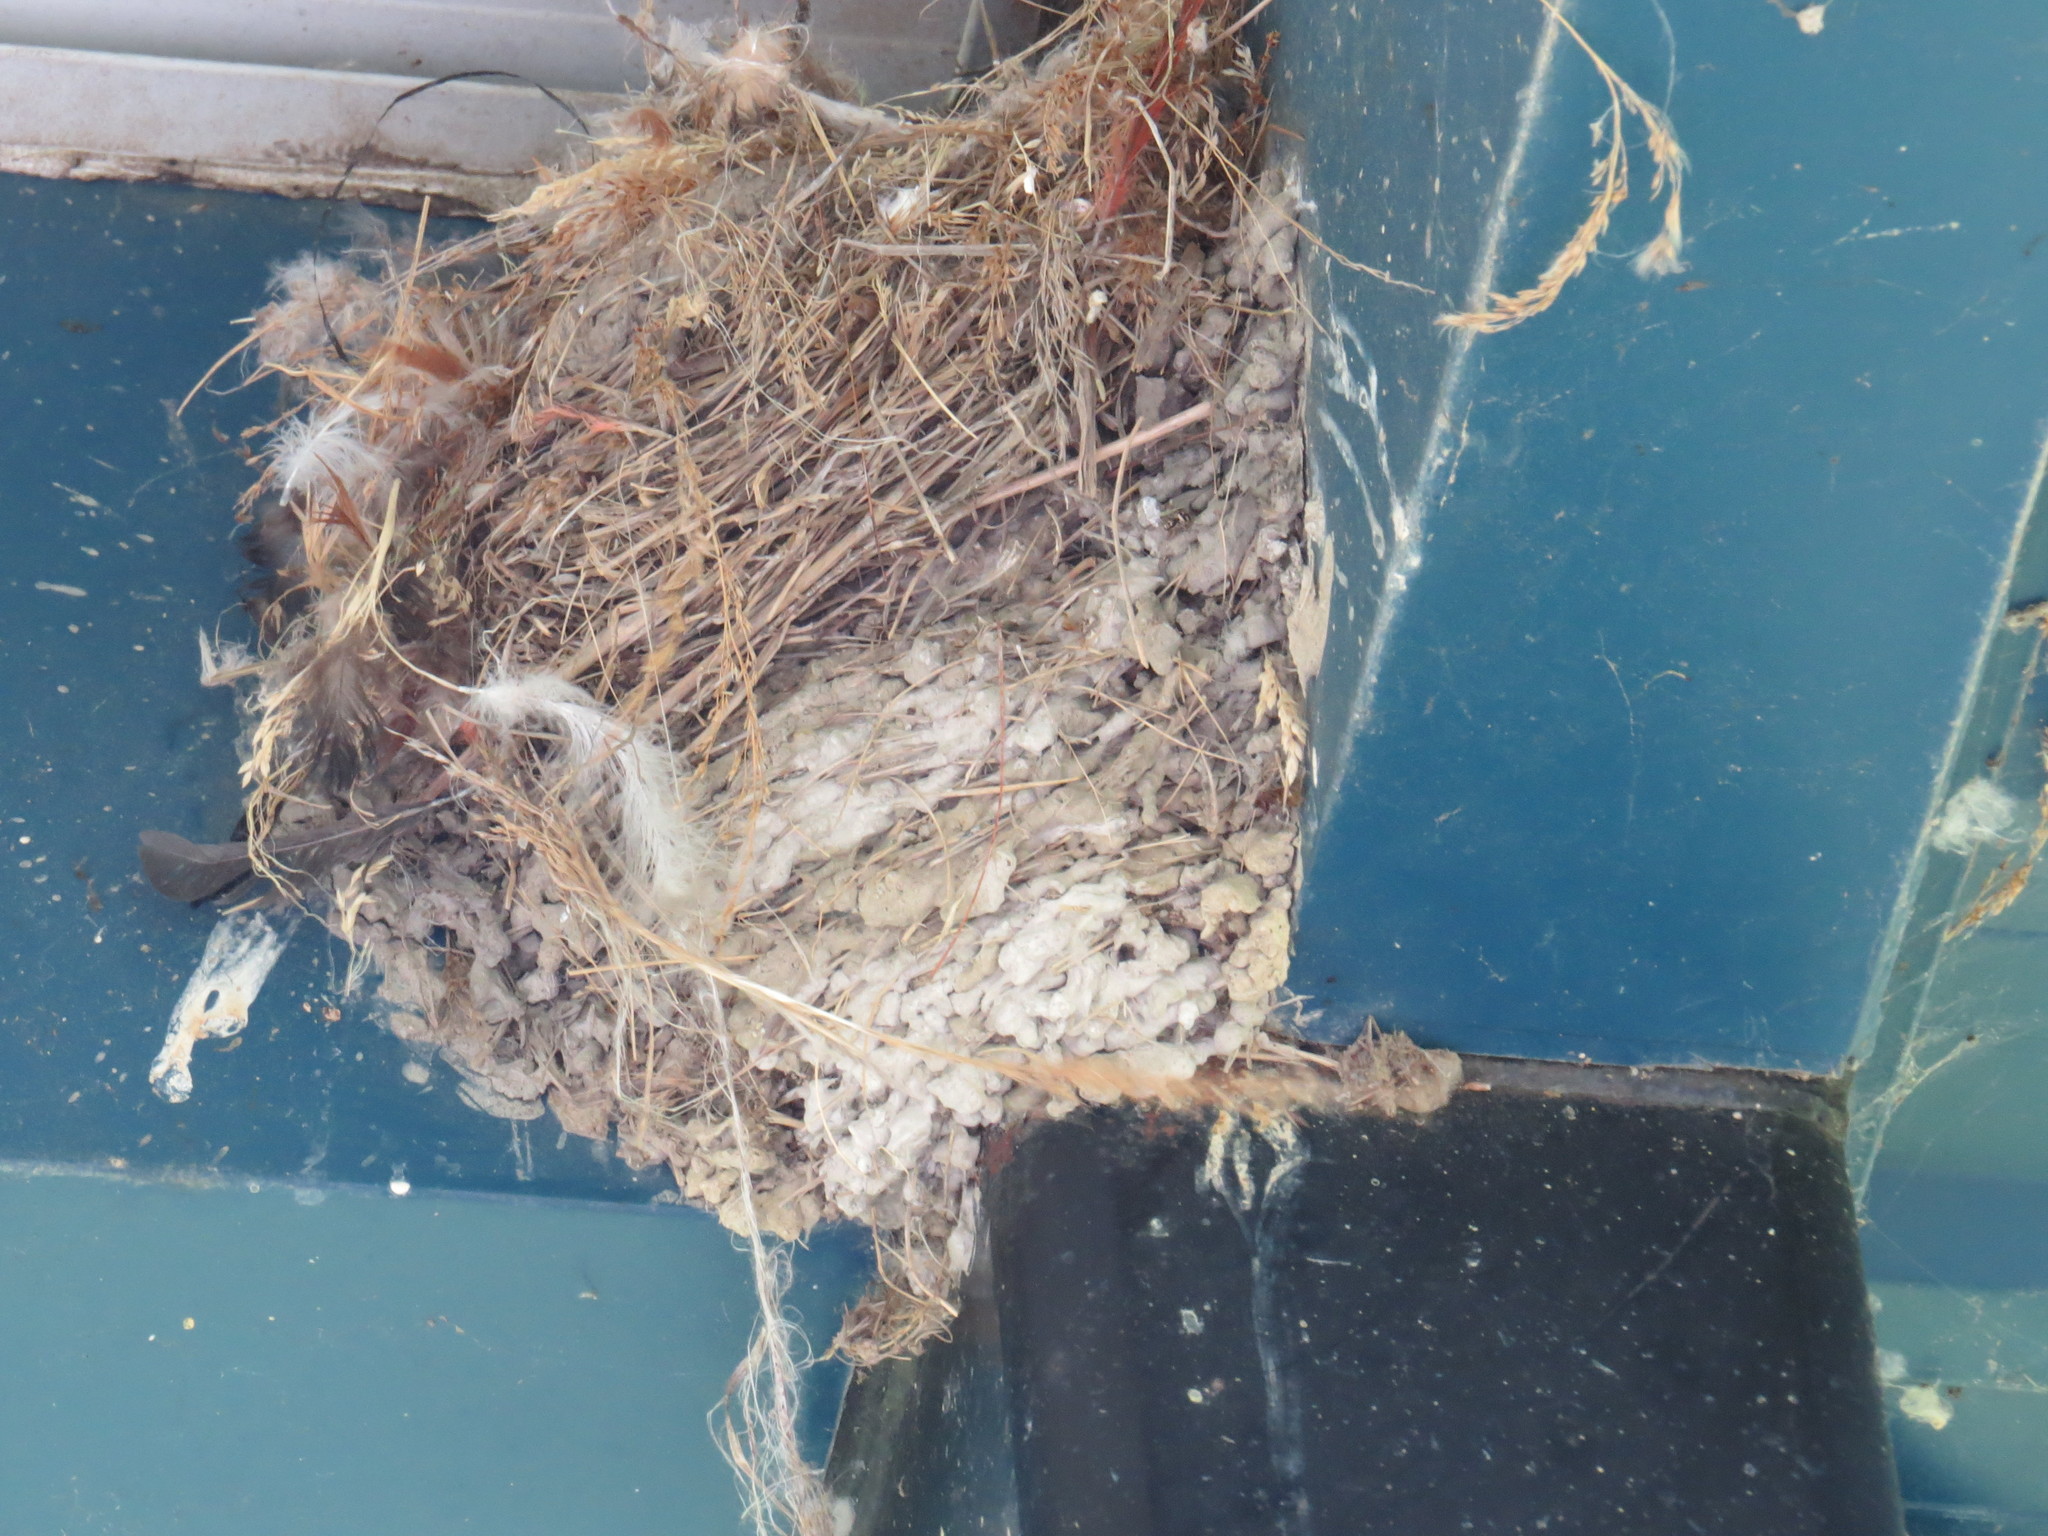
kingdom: Animalia
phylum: Chordata
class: Aves
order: Passeriformes
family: Hirundinidae
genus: Hirundo
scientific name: Hirundo rustica
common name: Barn swallow
